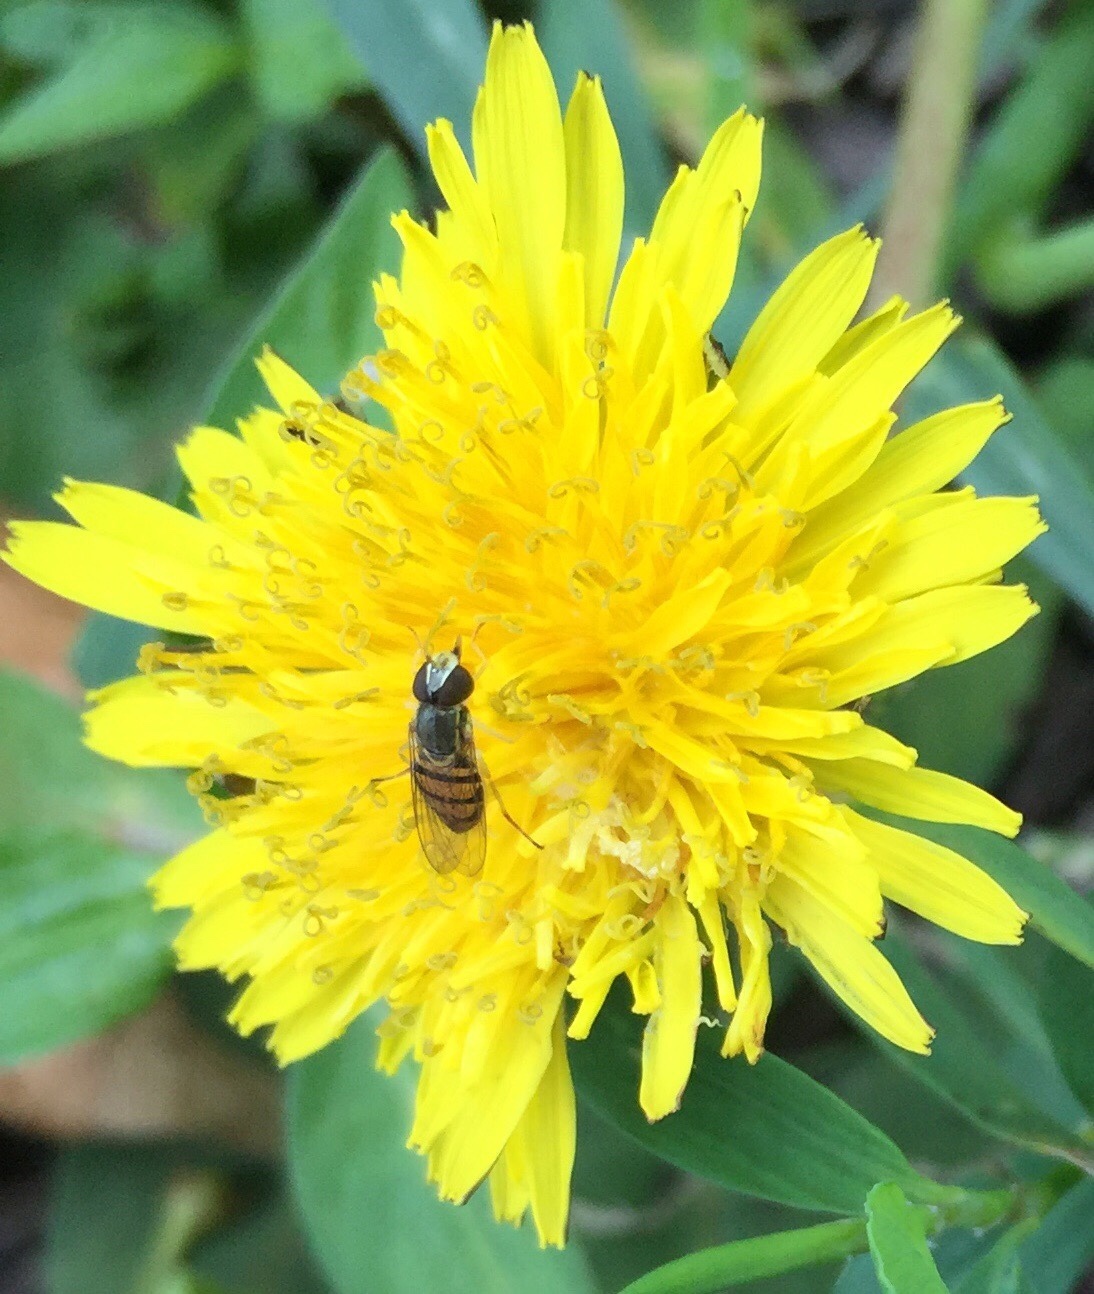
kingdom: Animalia
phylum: Arthropoda
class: Insecta
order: Diptera
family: Syrphidae
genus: Toxomerus
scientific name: Toxomerus marginatus
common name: Syrphid fly
